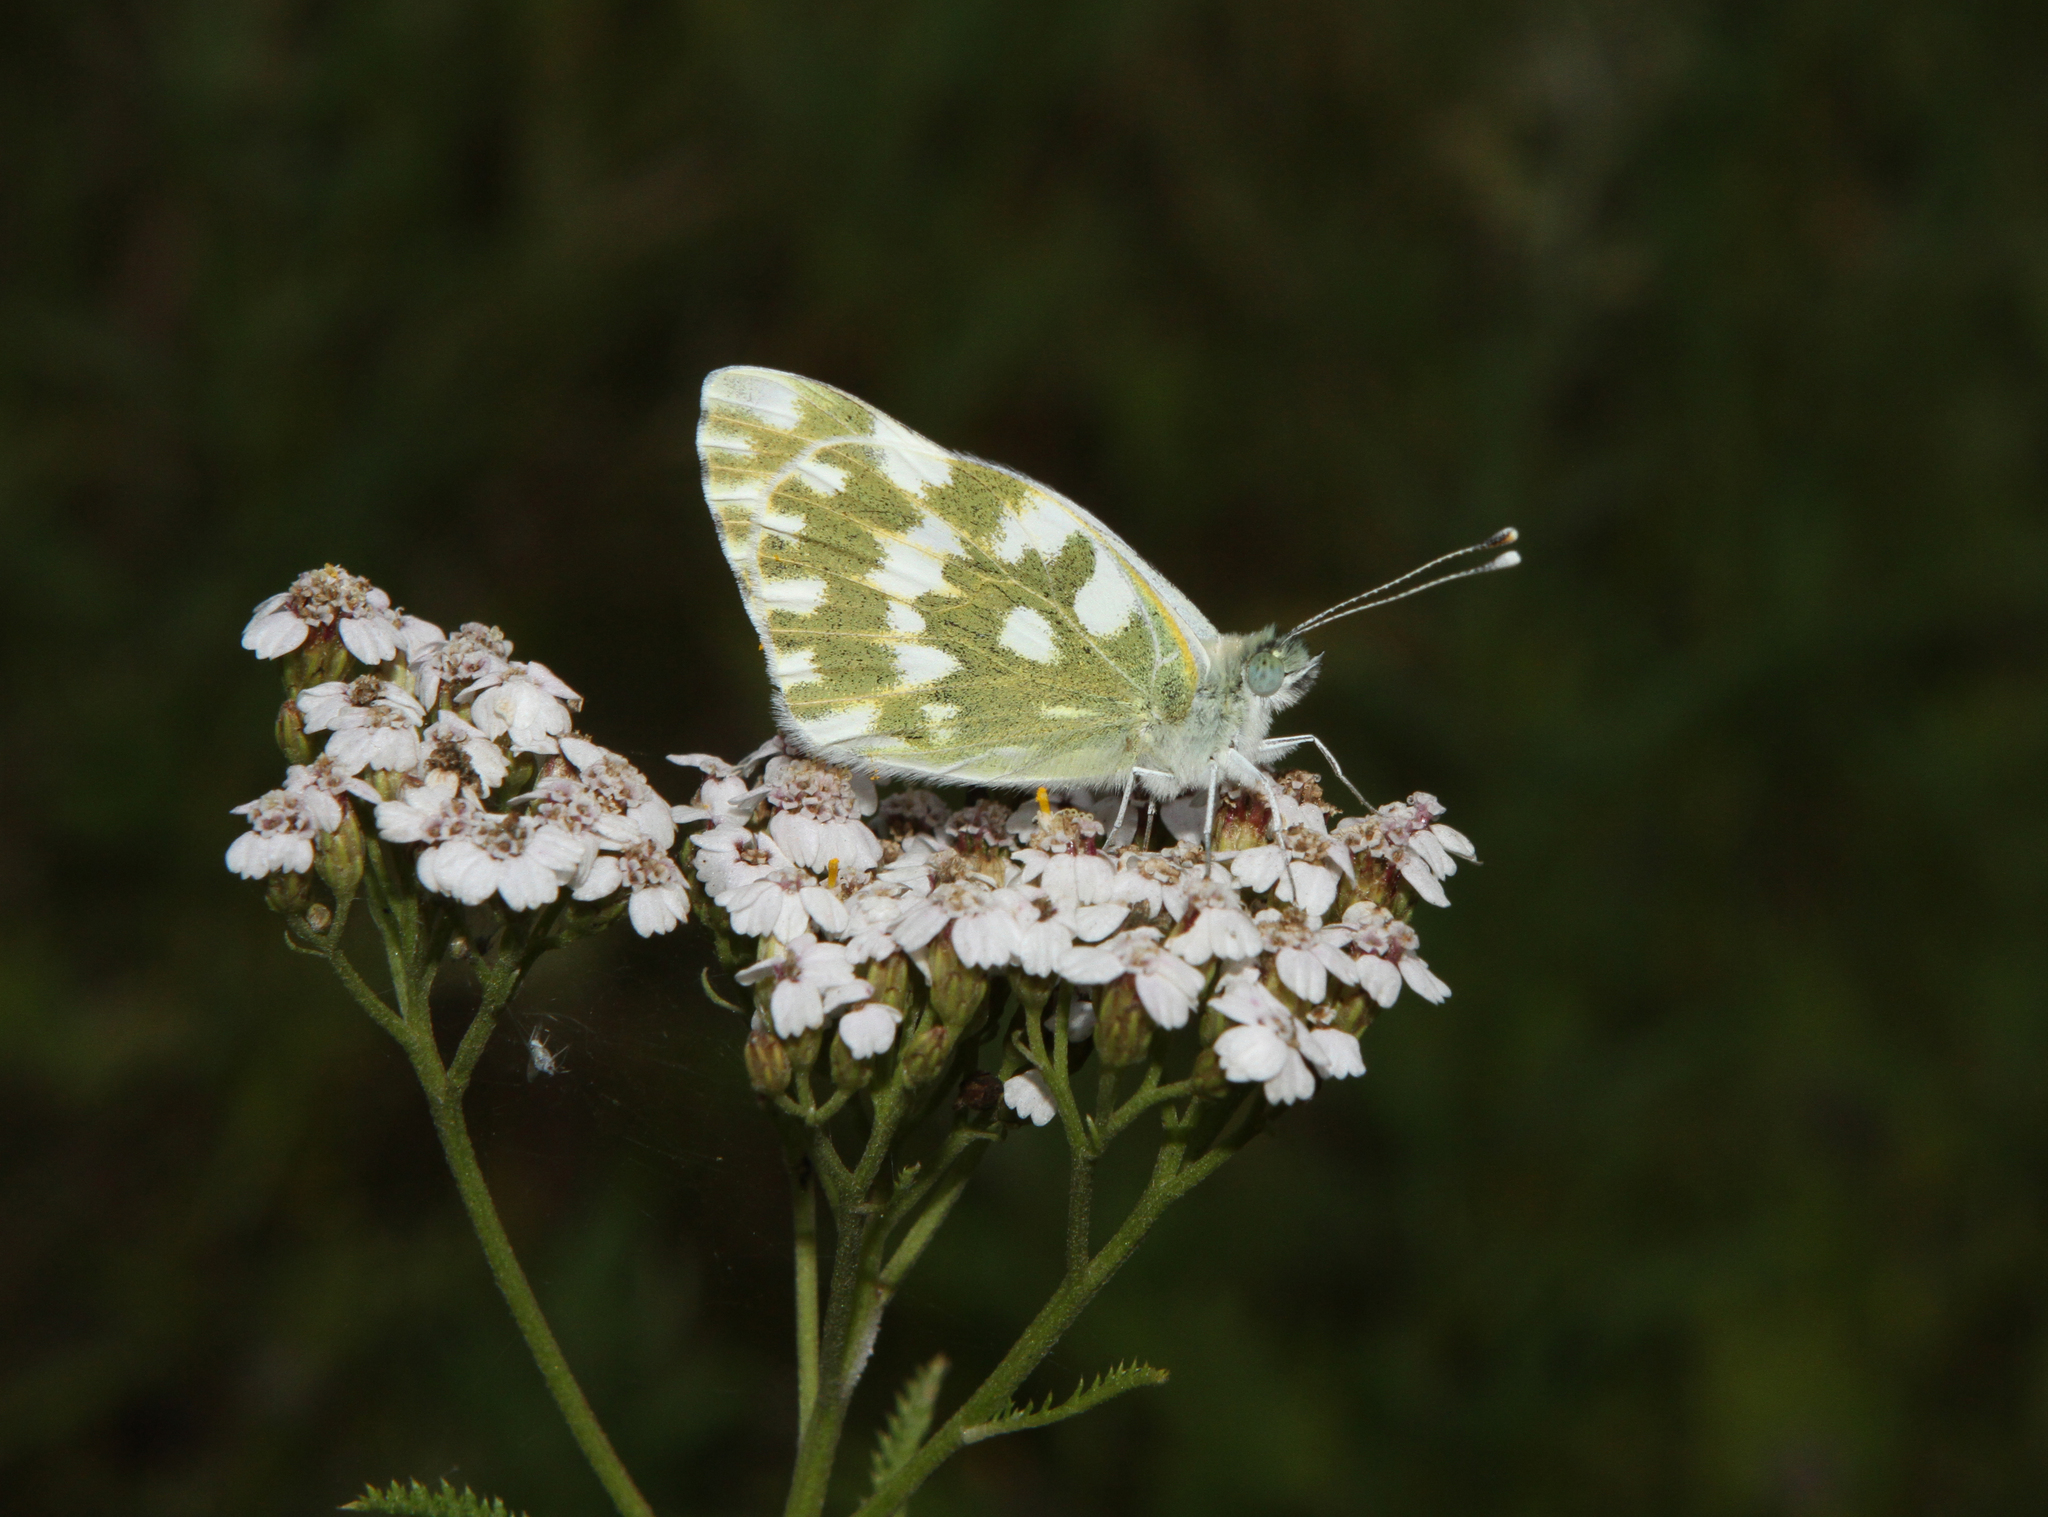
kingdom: Plantae
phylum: Tracheophyta
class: Magnoliopsida
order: Asterales
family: Asteraceae
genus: Achillea
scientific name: Achillea millefolium
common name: Yarrow
